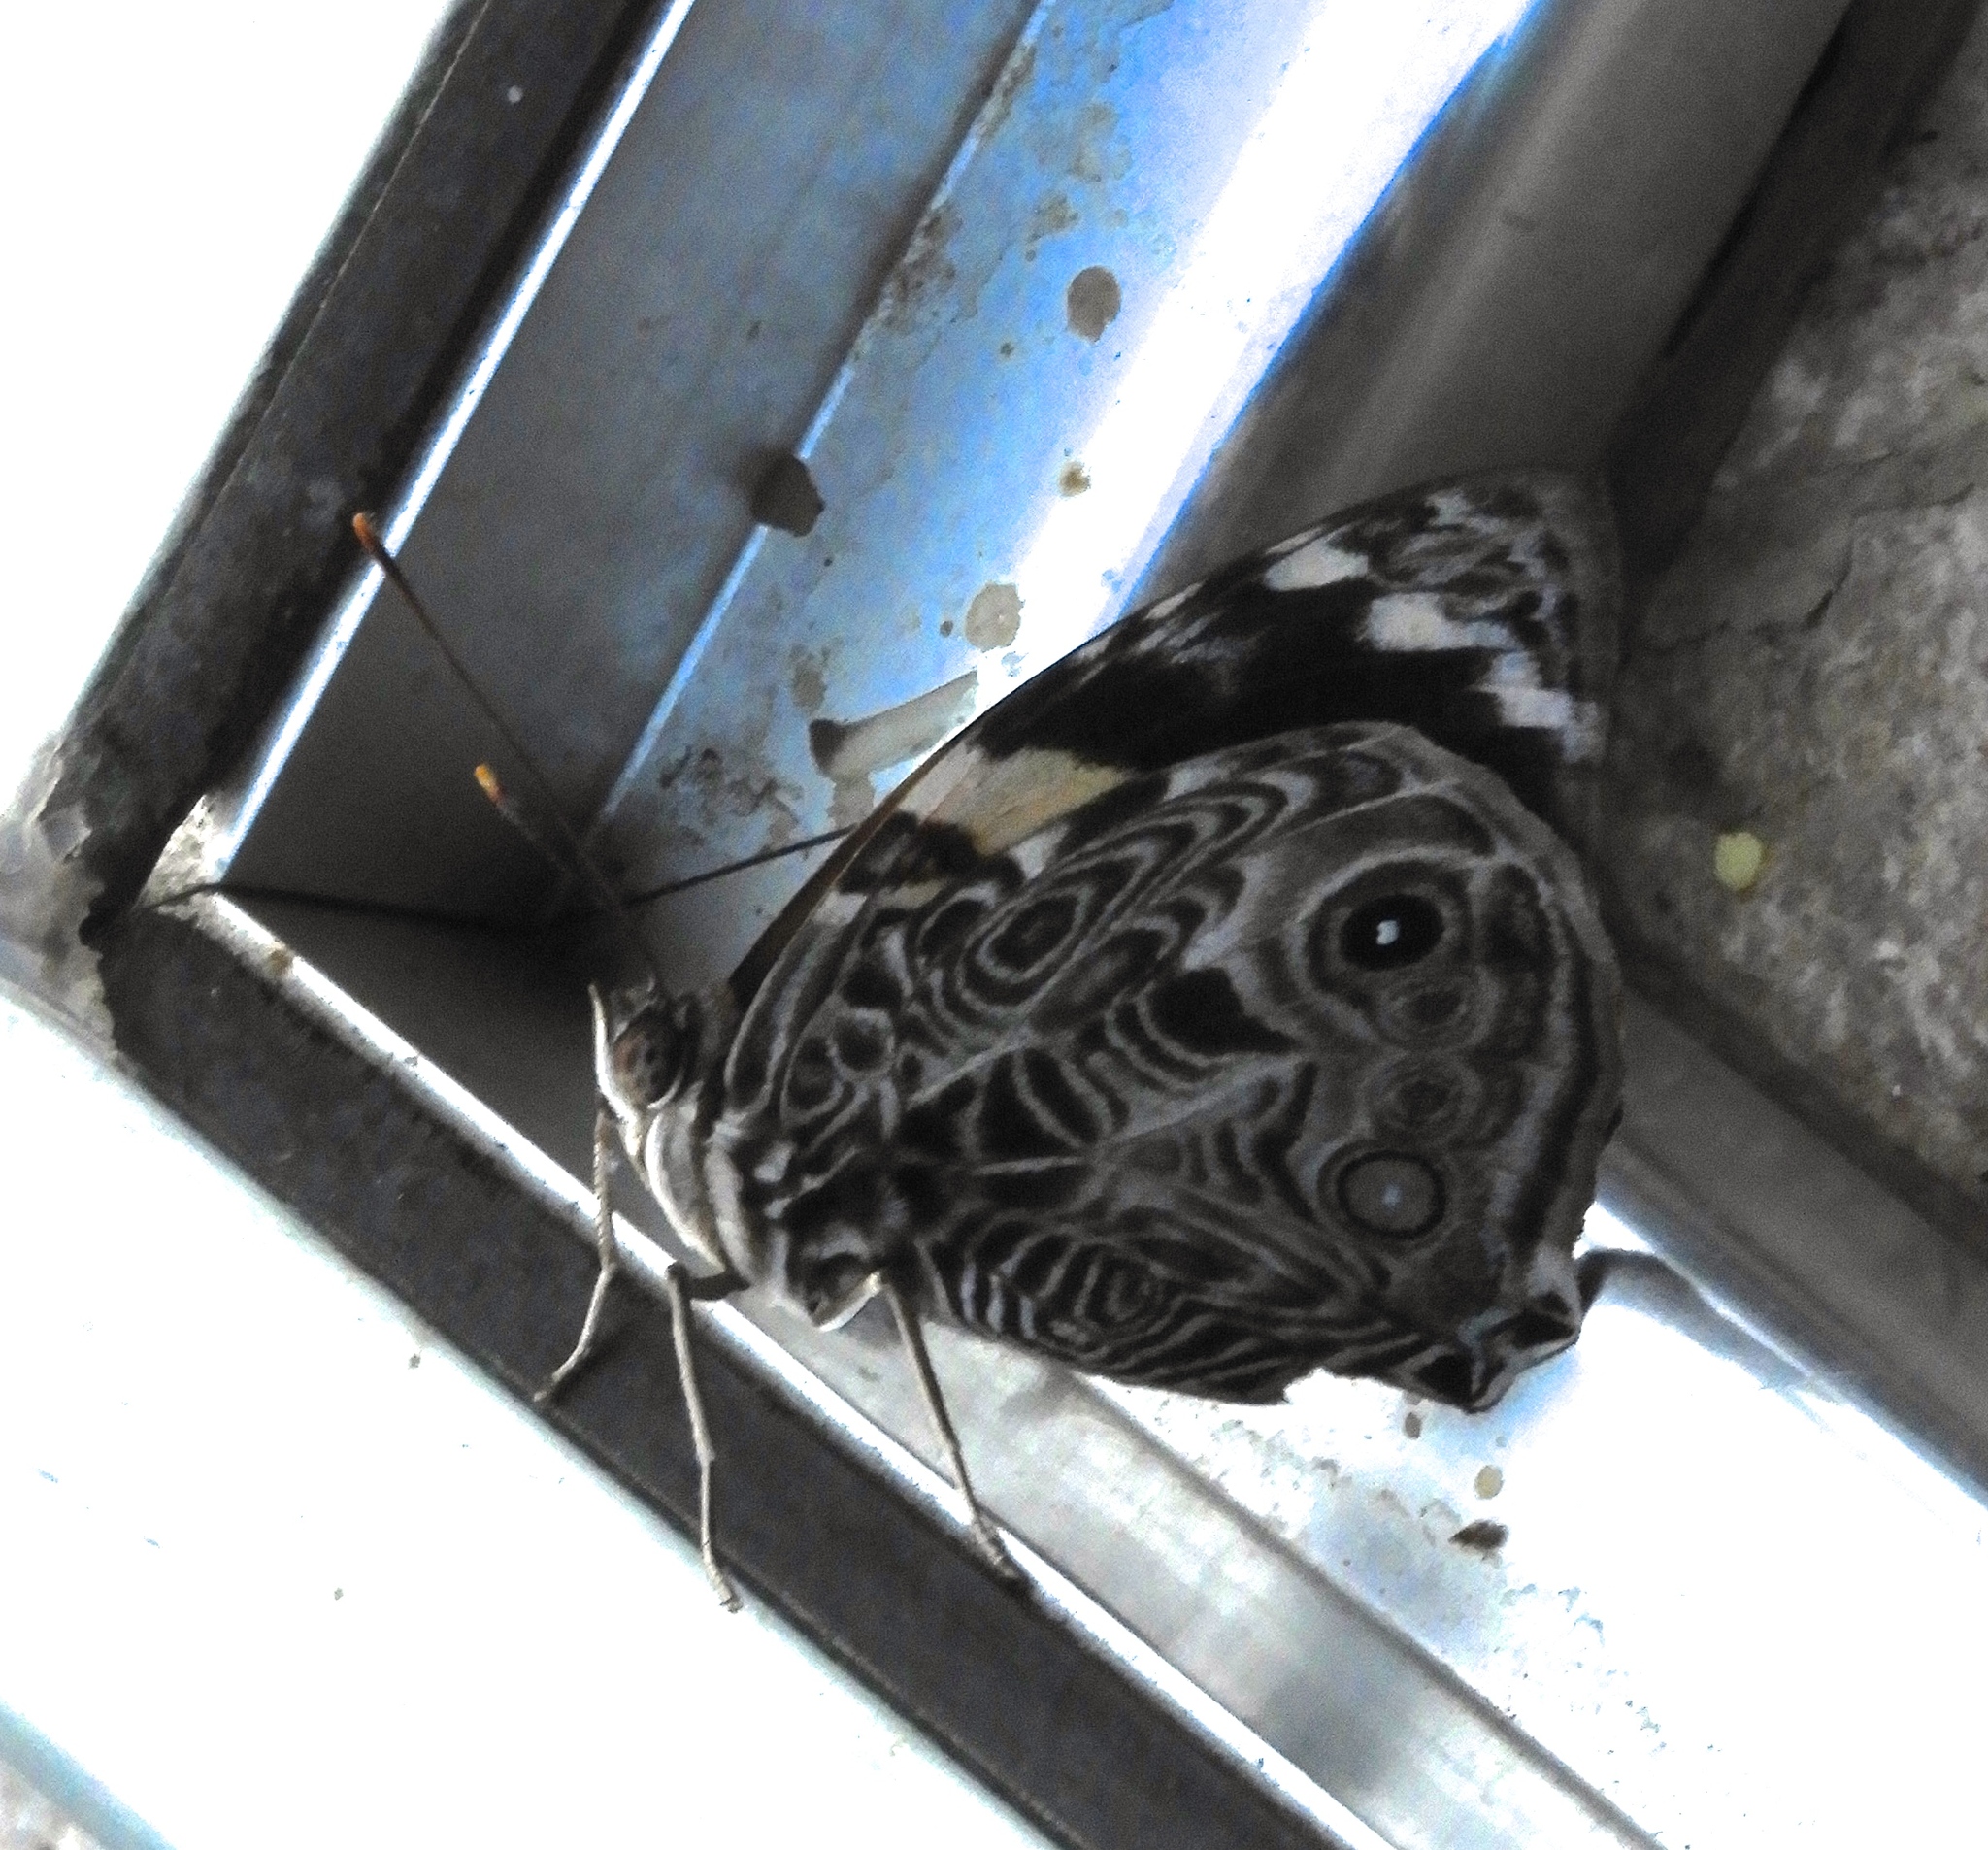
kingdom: Animalia
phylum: Arthropoda
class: Insecta
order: Lepidoptera
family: Nymphalidae
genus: Smyrna
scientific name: Smyrna blomfildia
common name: Blomfild's beauty
